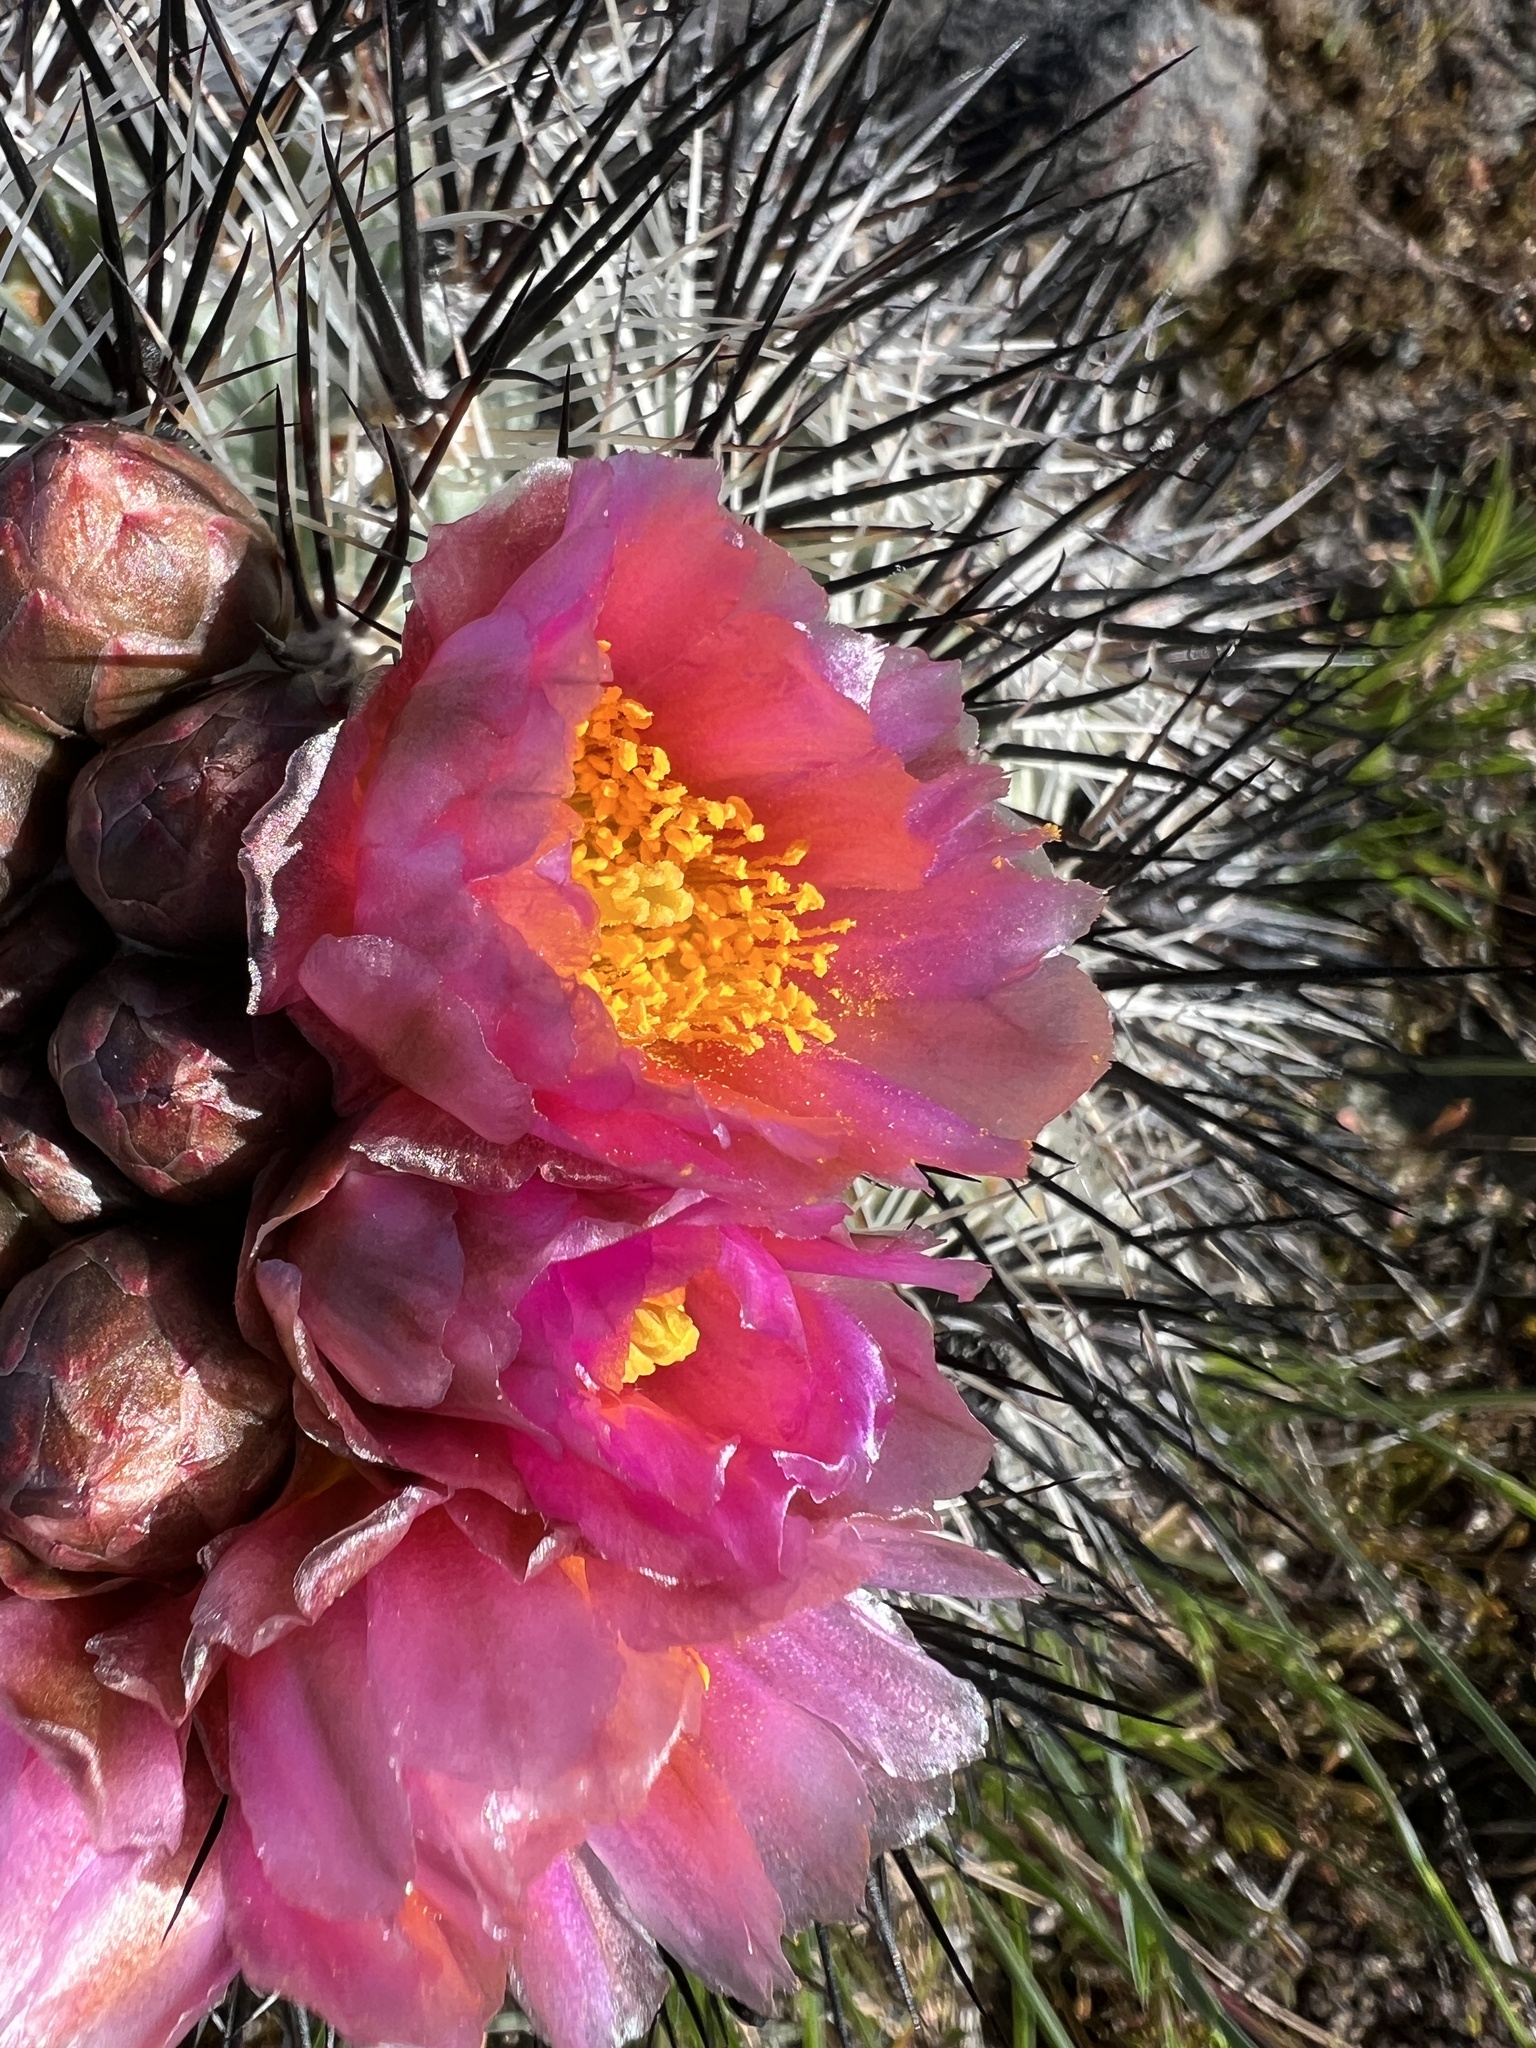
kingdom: Plantae
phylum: Tracheophyta
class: Magnoliopsida
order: Caryophyllales
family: Cactaceae
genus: Pediocactus
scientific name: Pediocactus nigrispinus
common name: Simpson's hedgehog cactus
